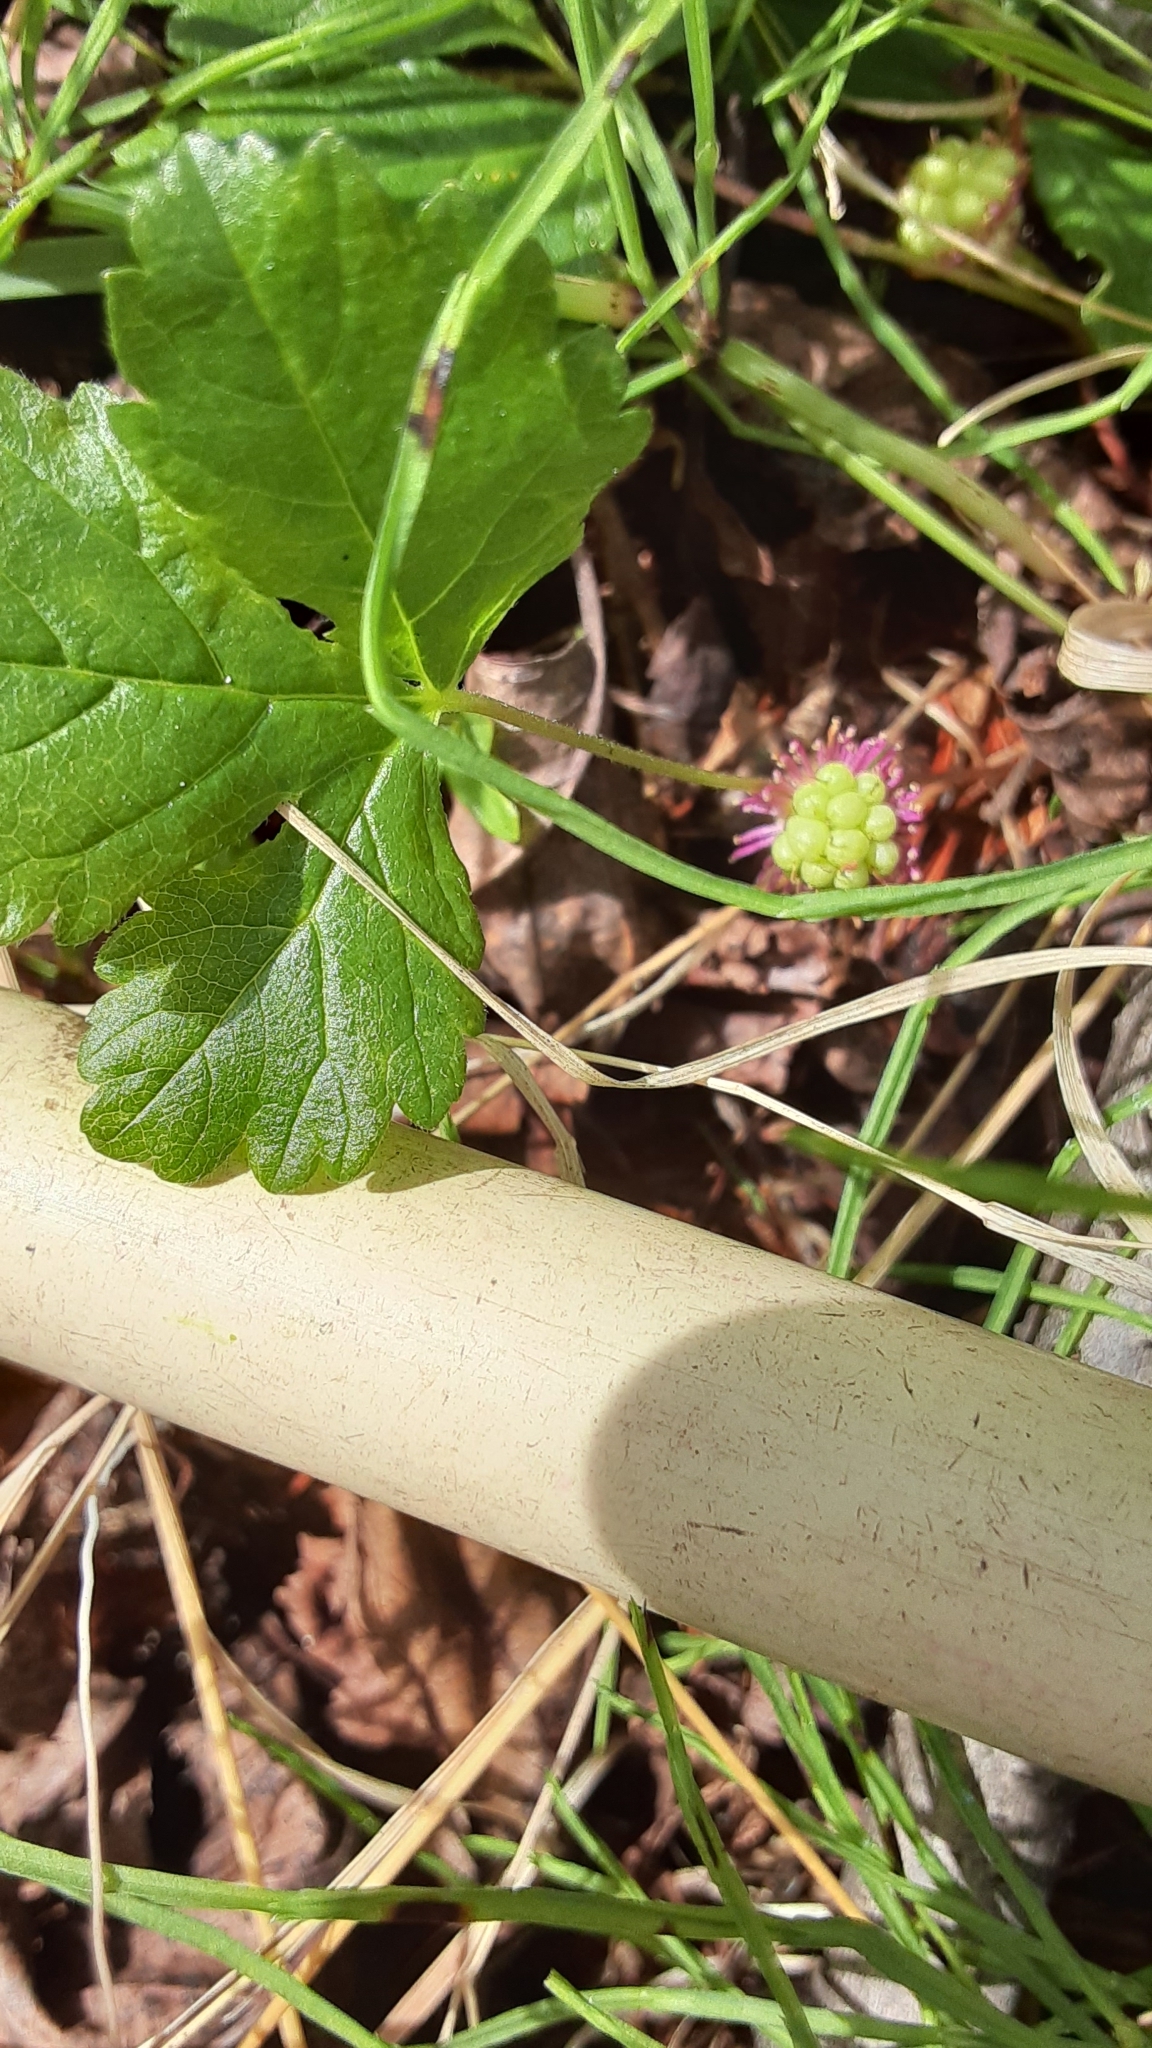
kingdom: Plantae
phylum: Tracheophyta
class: Magnoliopsida
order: Rosales
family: Rosaceae
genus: Rubus
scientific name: Rubus arcticus
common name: Arctic bramble
